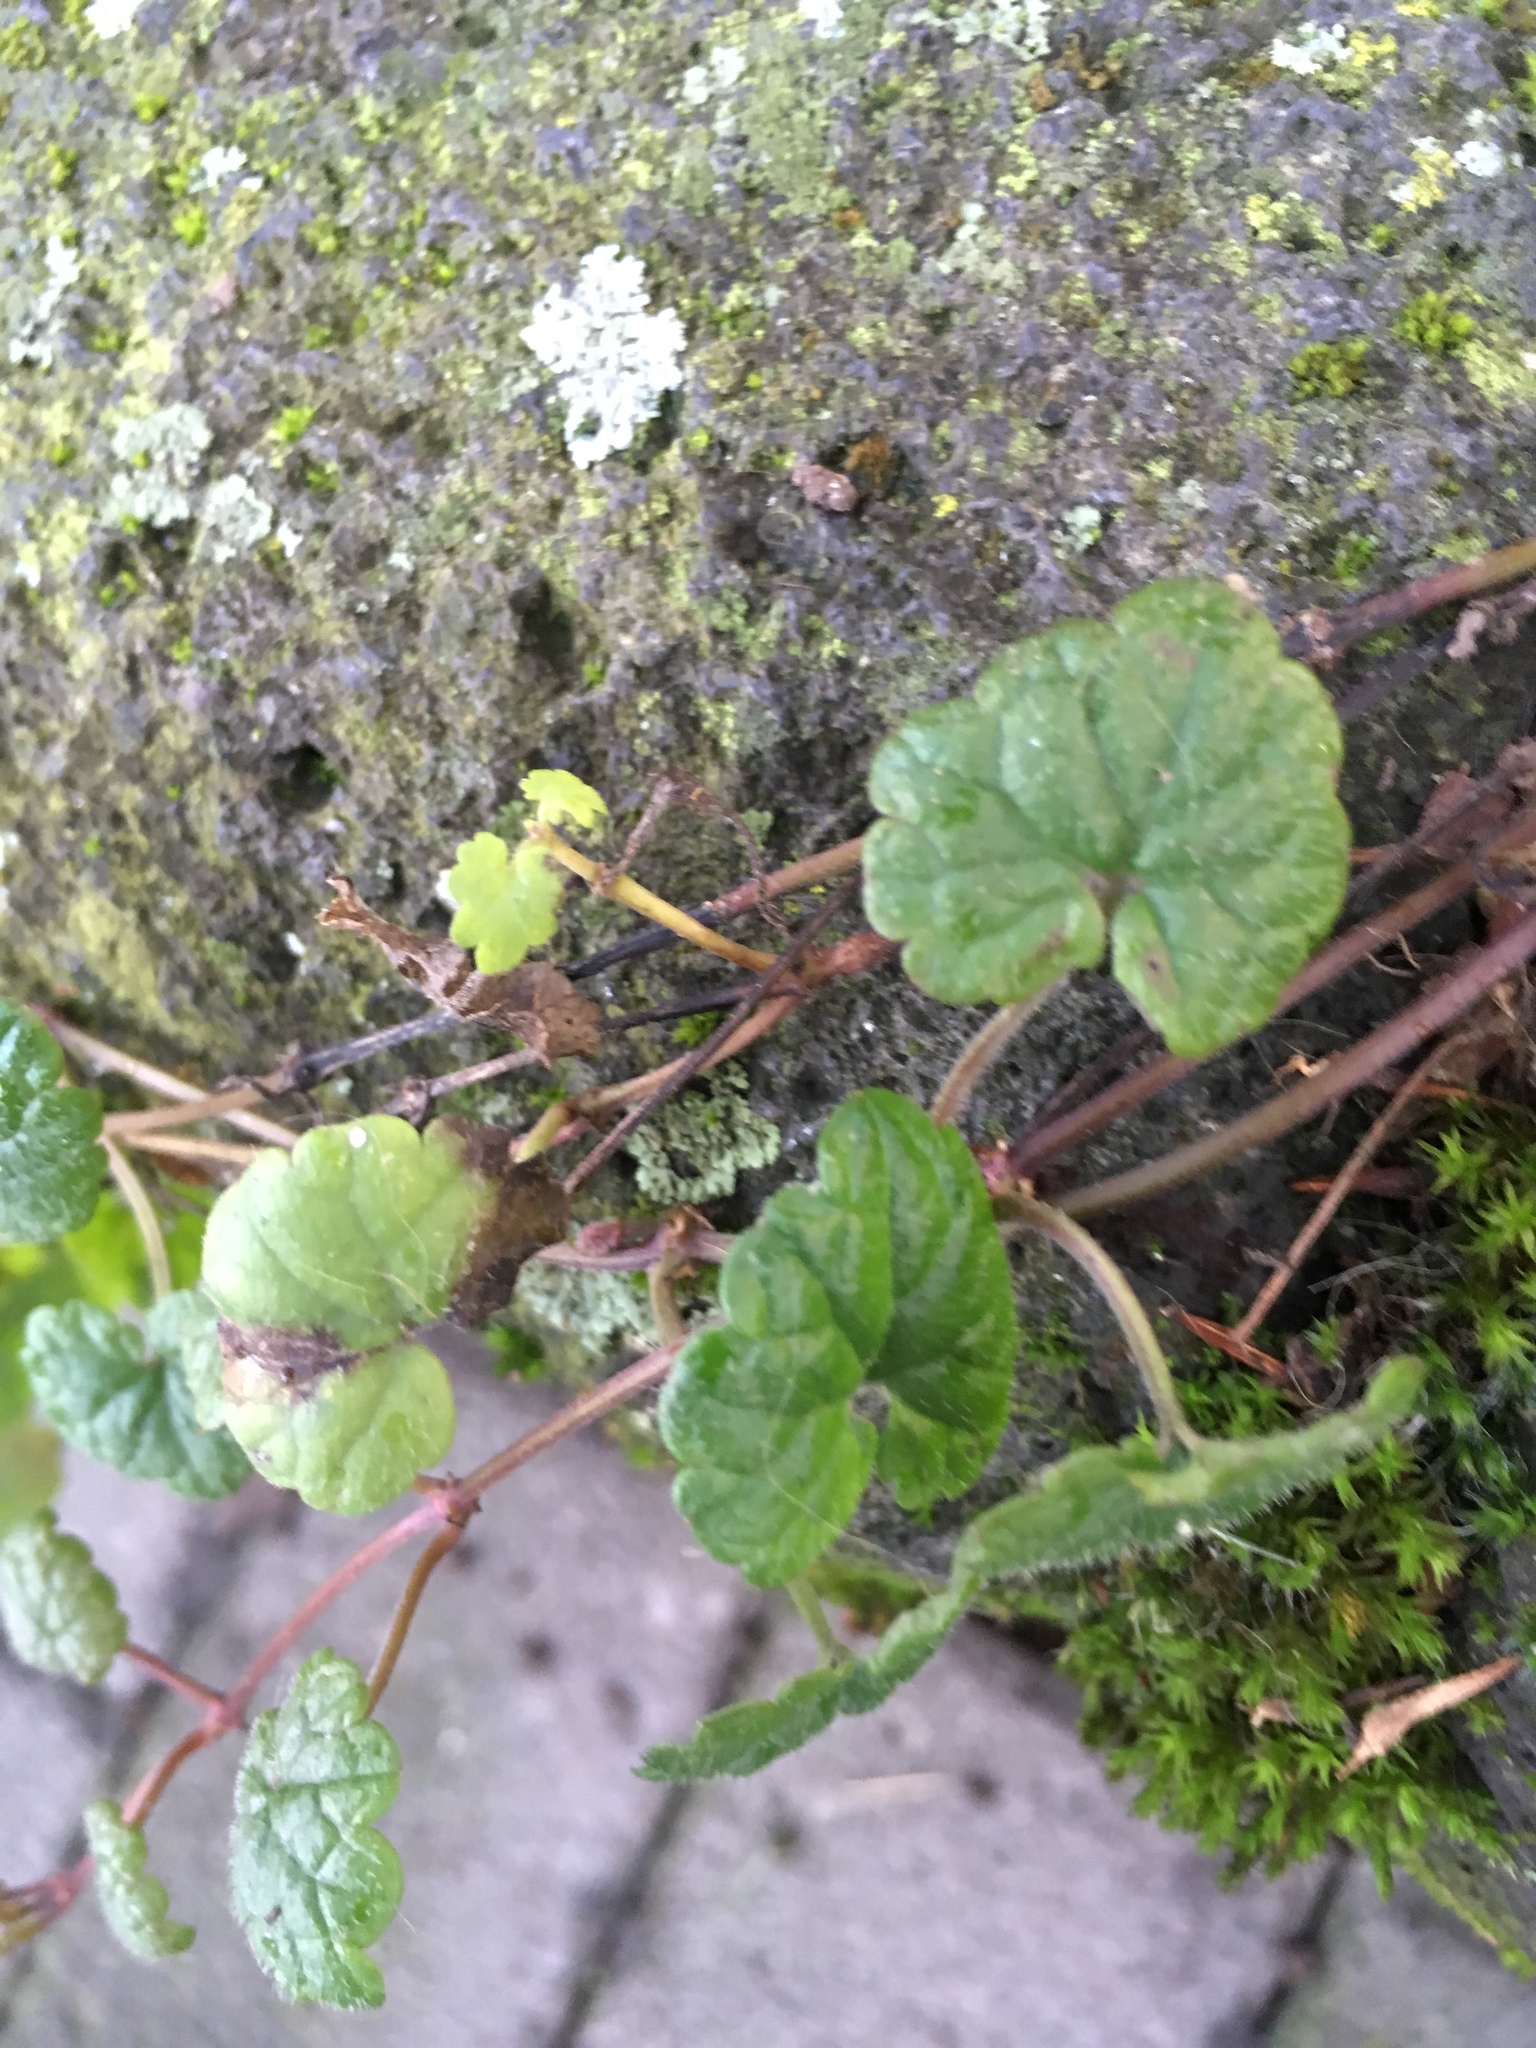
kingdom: Plantae
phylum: Tracheophyta
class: Magnoliopsida
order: Lamiales
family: Lamiaceae
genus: Glechoma
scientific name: Glechoma hederacea
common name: Ground ivy
